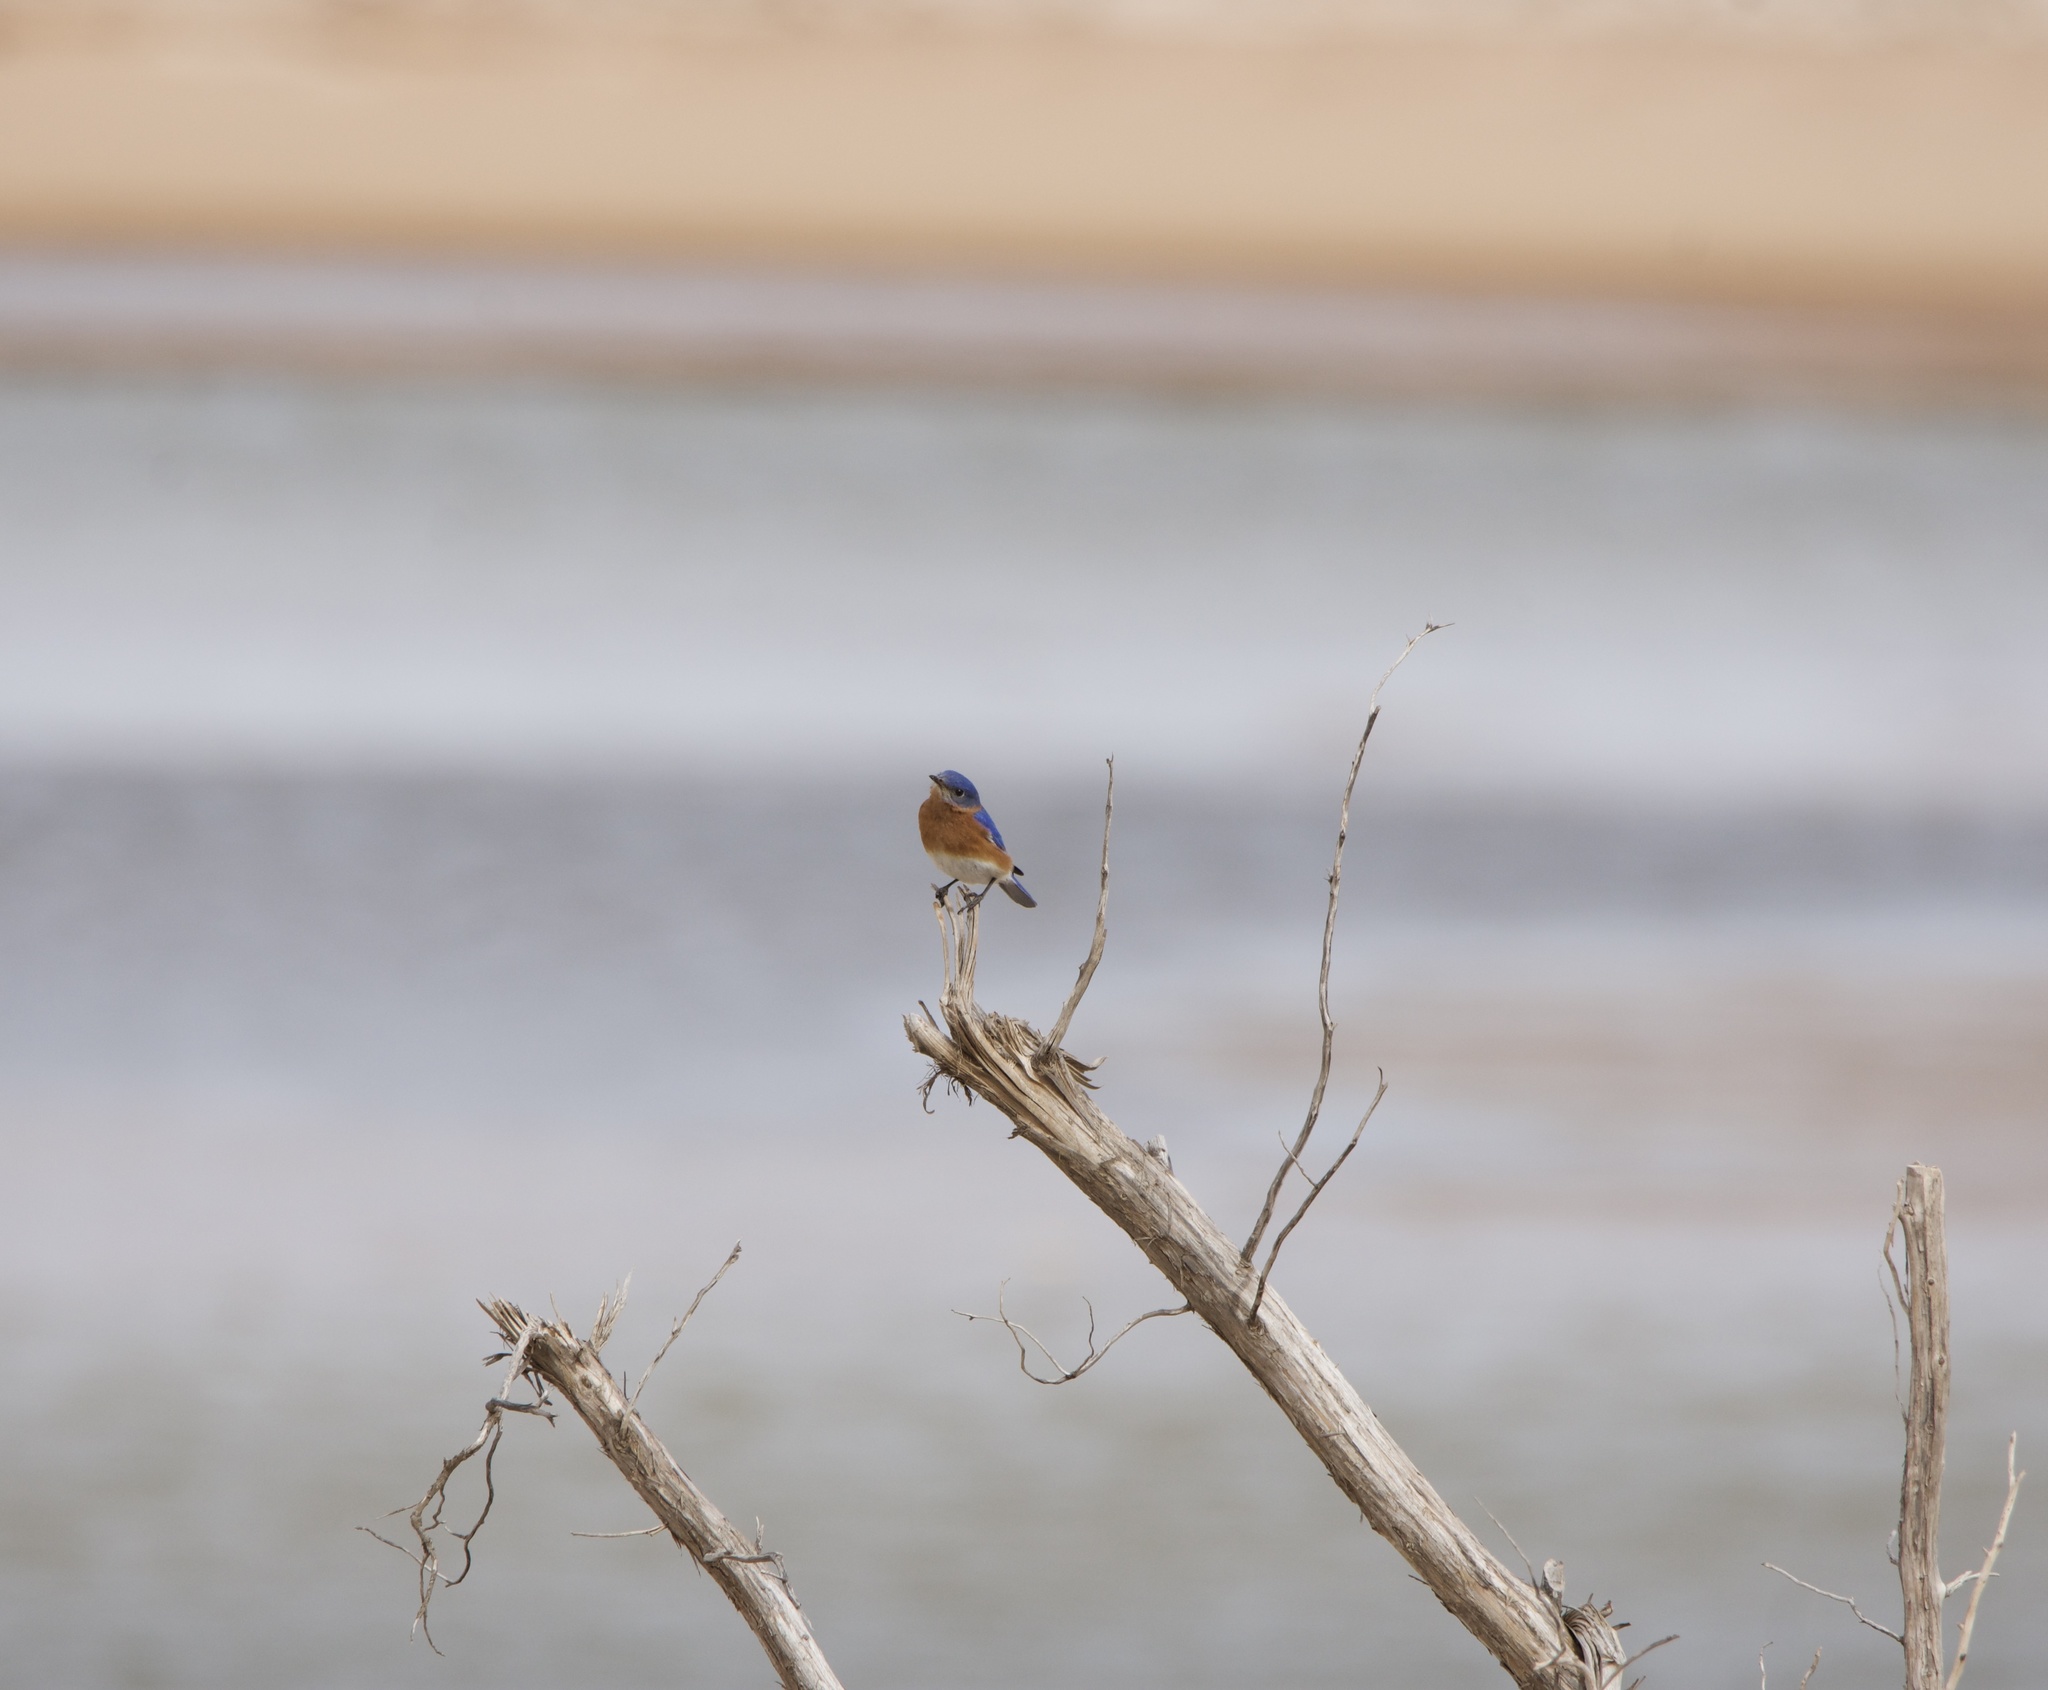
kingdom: Animalia
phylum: Chordata
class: Aves
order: Passeriformes
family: Turdidae
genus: Sialia
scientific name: Sialia sialis
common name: Eastern bluebird
